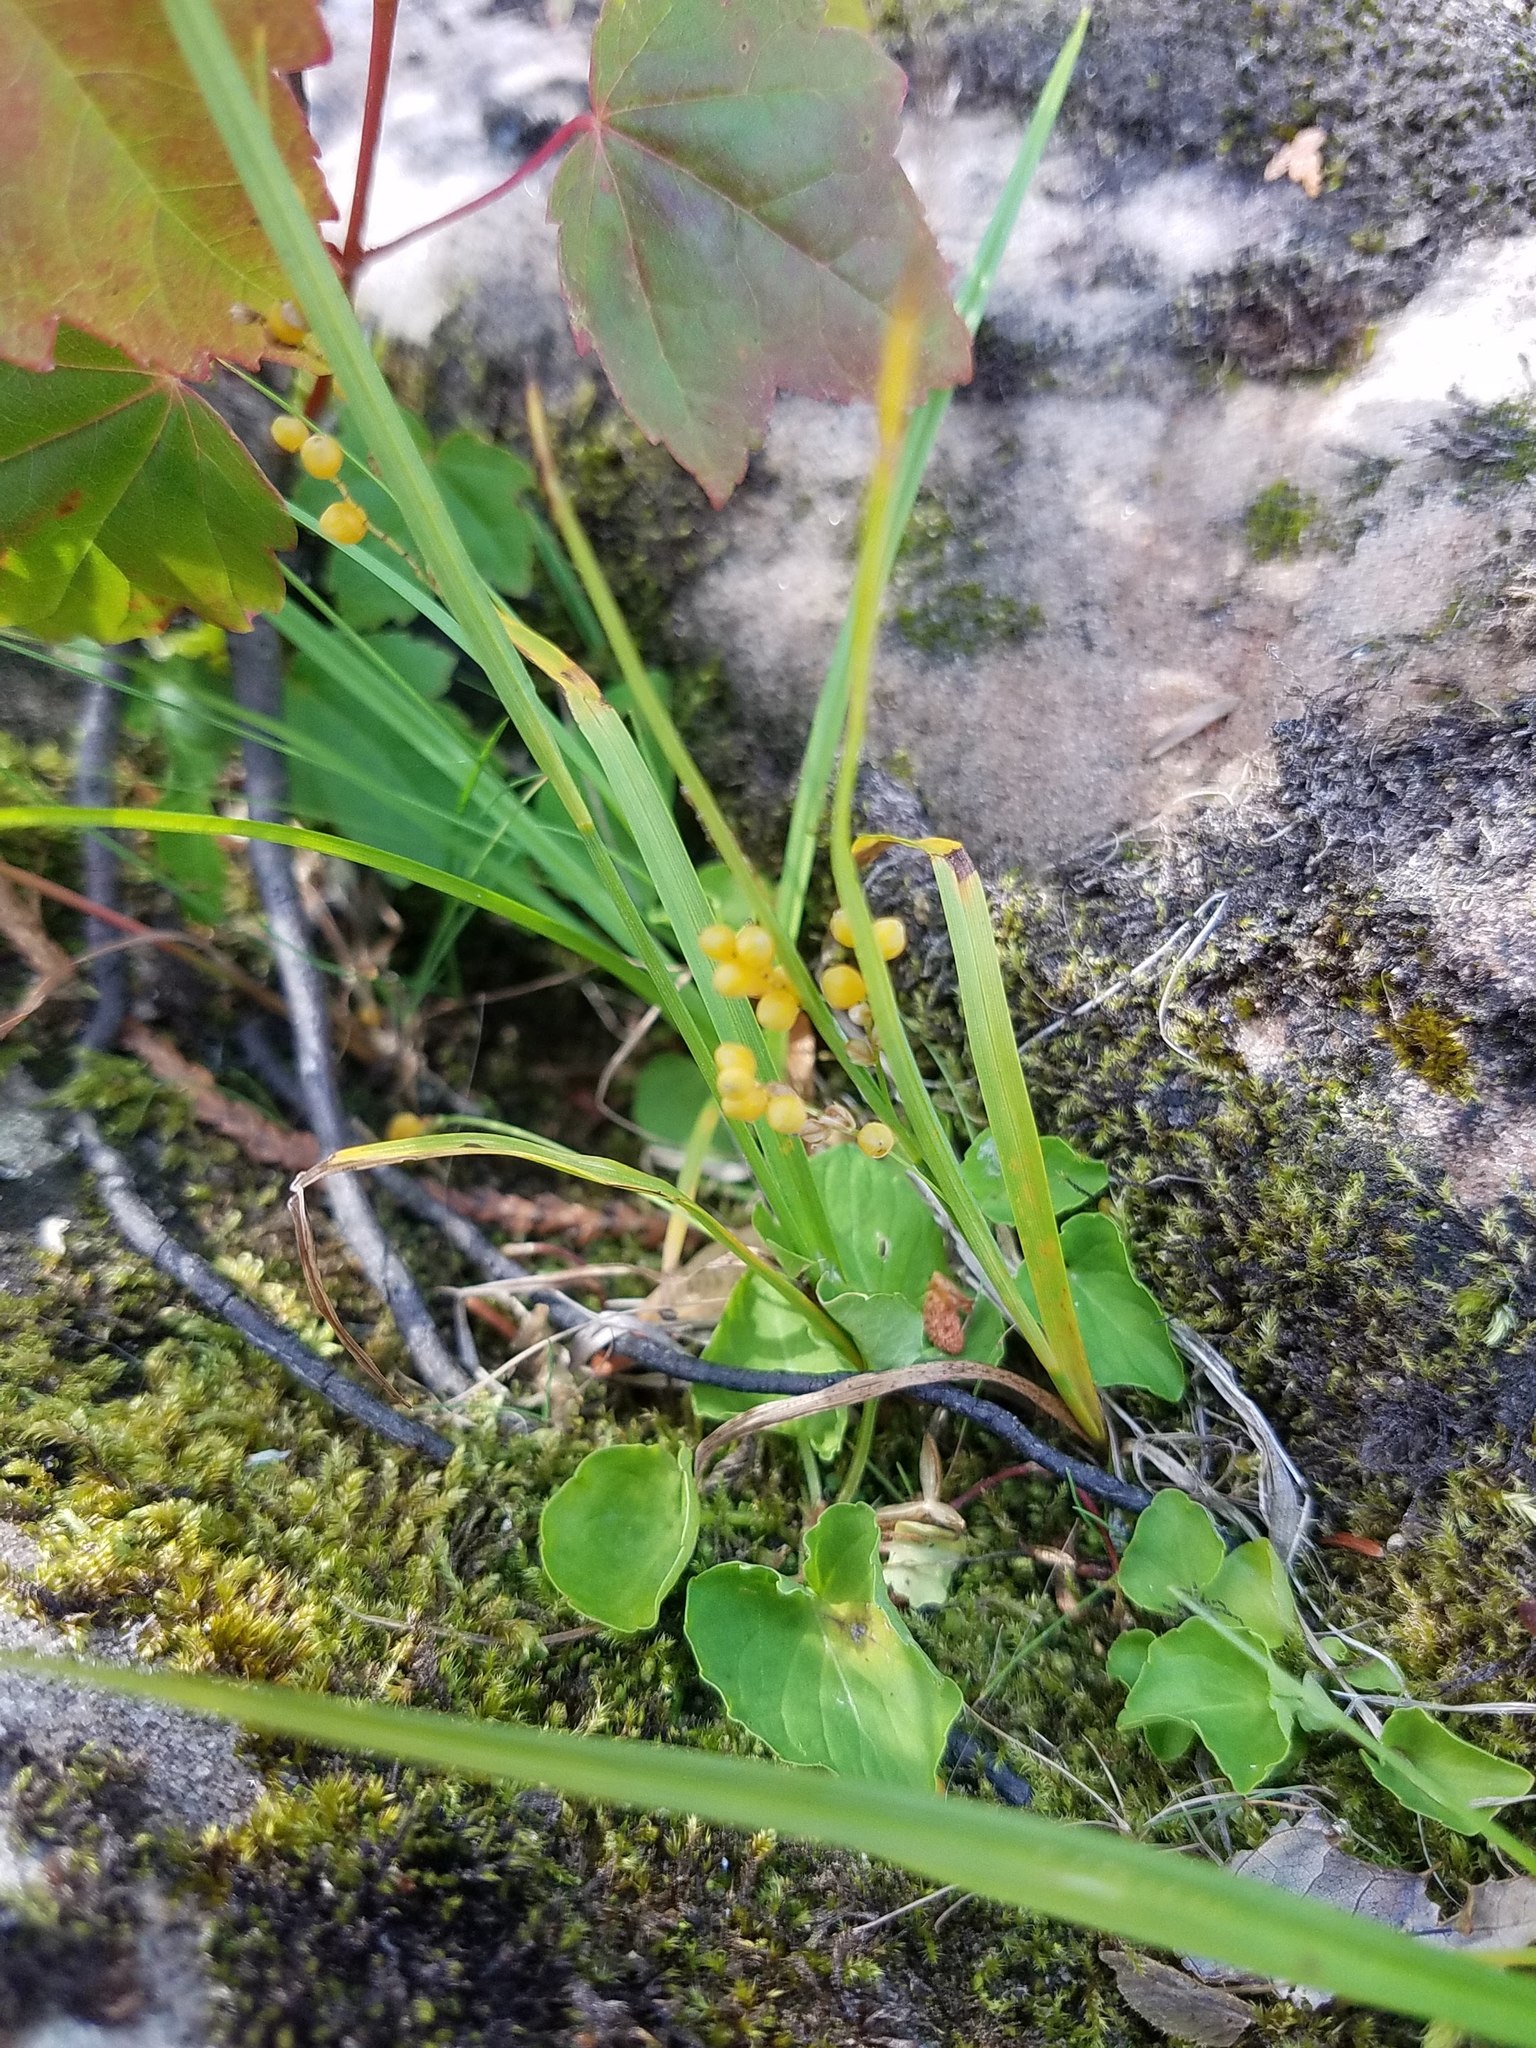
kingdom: Plantae
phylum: Tracheophyta
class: Liliopsida
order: Poales
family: Cyperaceae
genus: Carex
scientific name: Carex aurea
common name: Golden sedge
